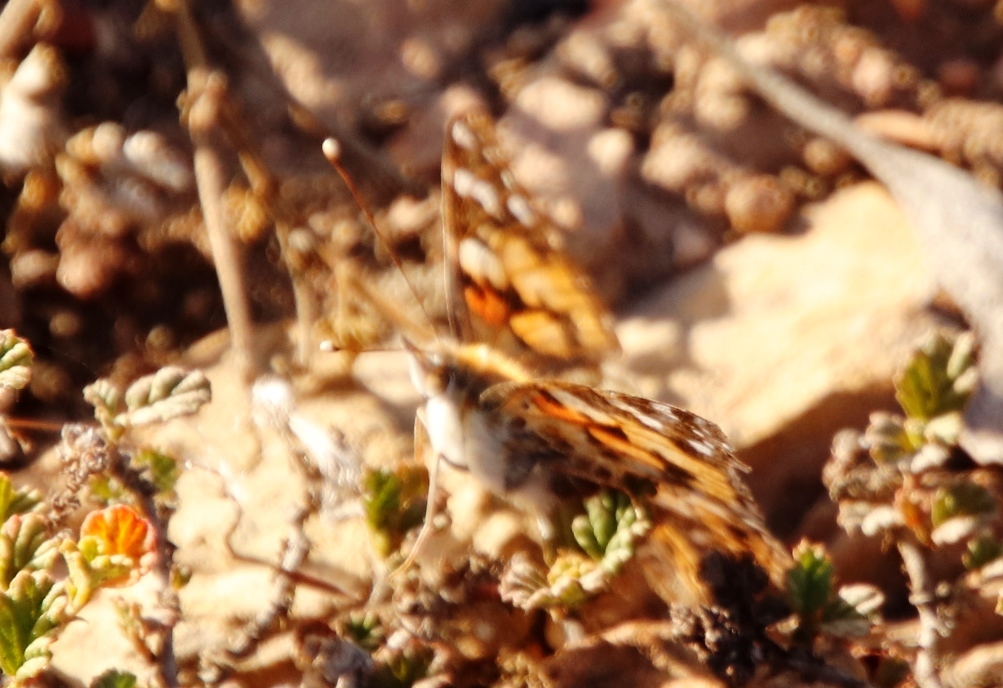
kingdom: Animalia
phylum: Arthropoda
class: Insecta
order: Lepidoptera
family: Nymphalidae
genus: Vanessa
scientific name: Vanessa cardui
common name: Painted lady
